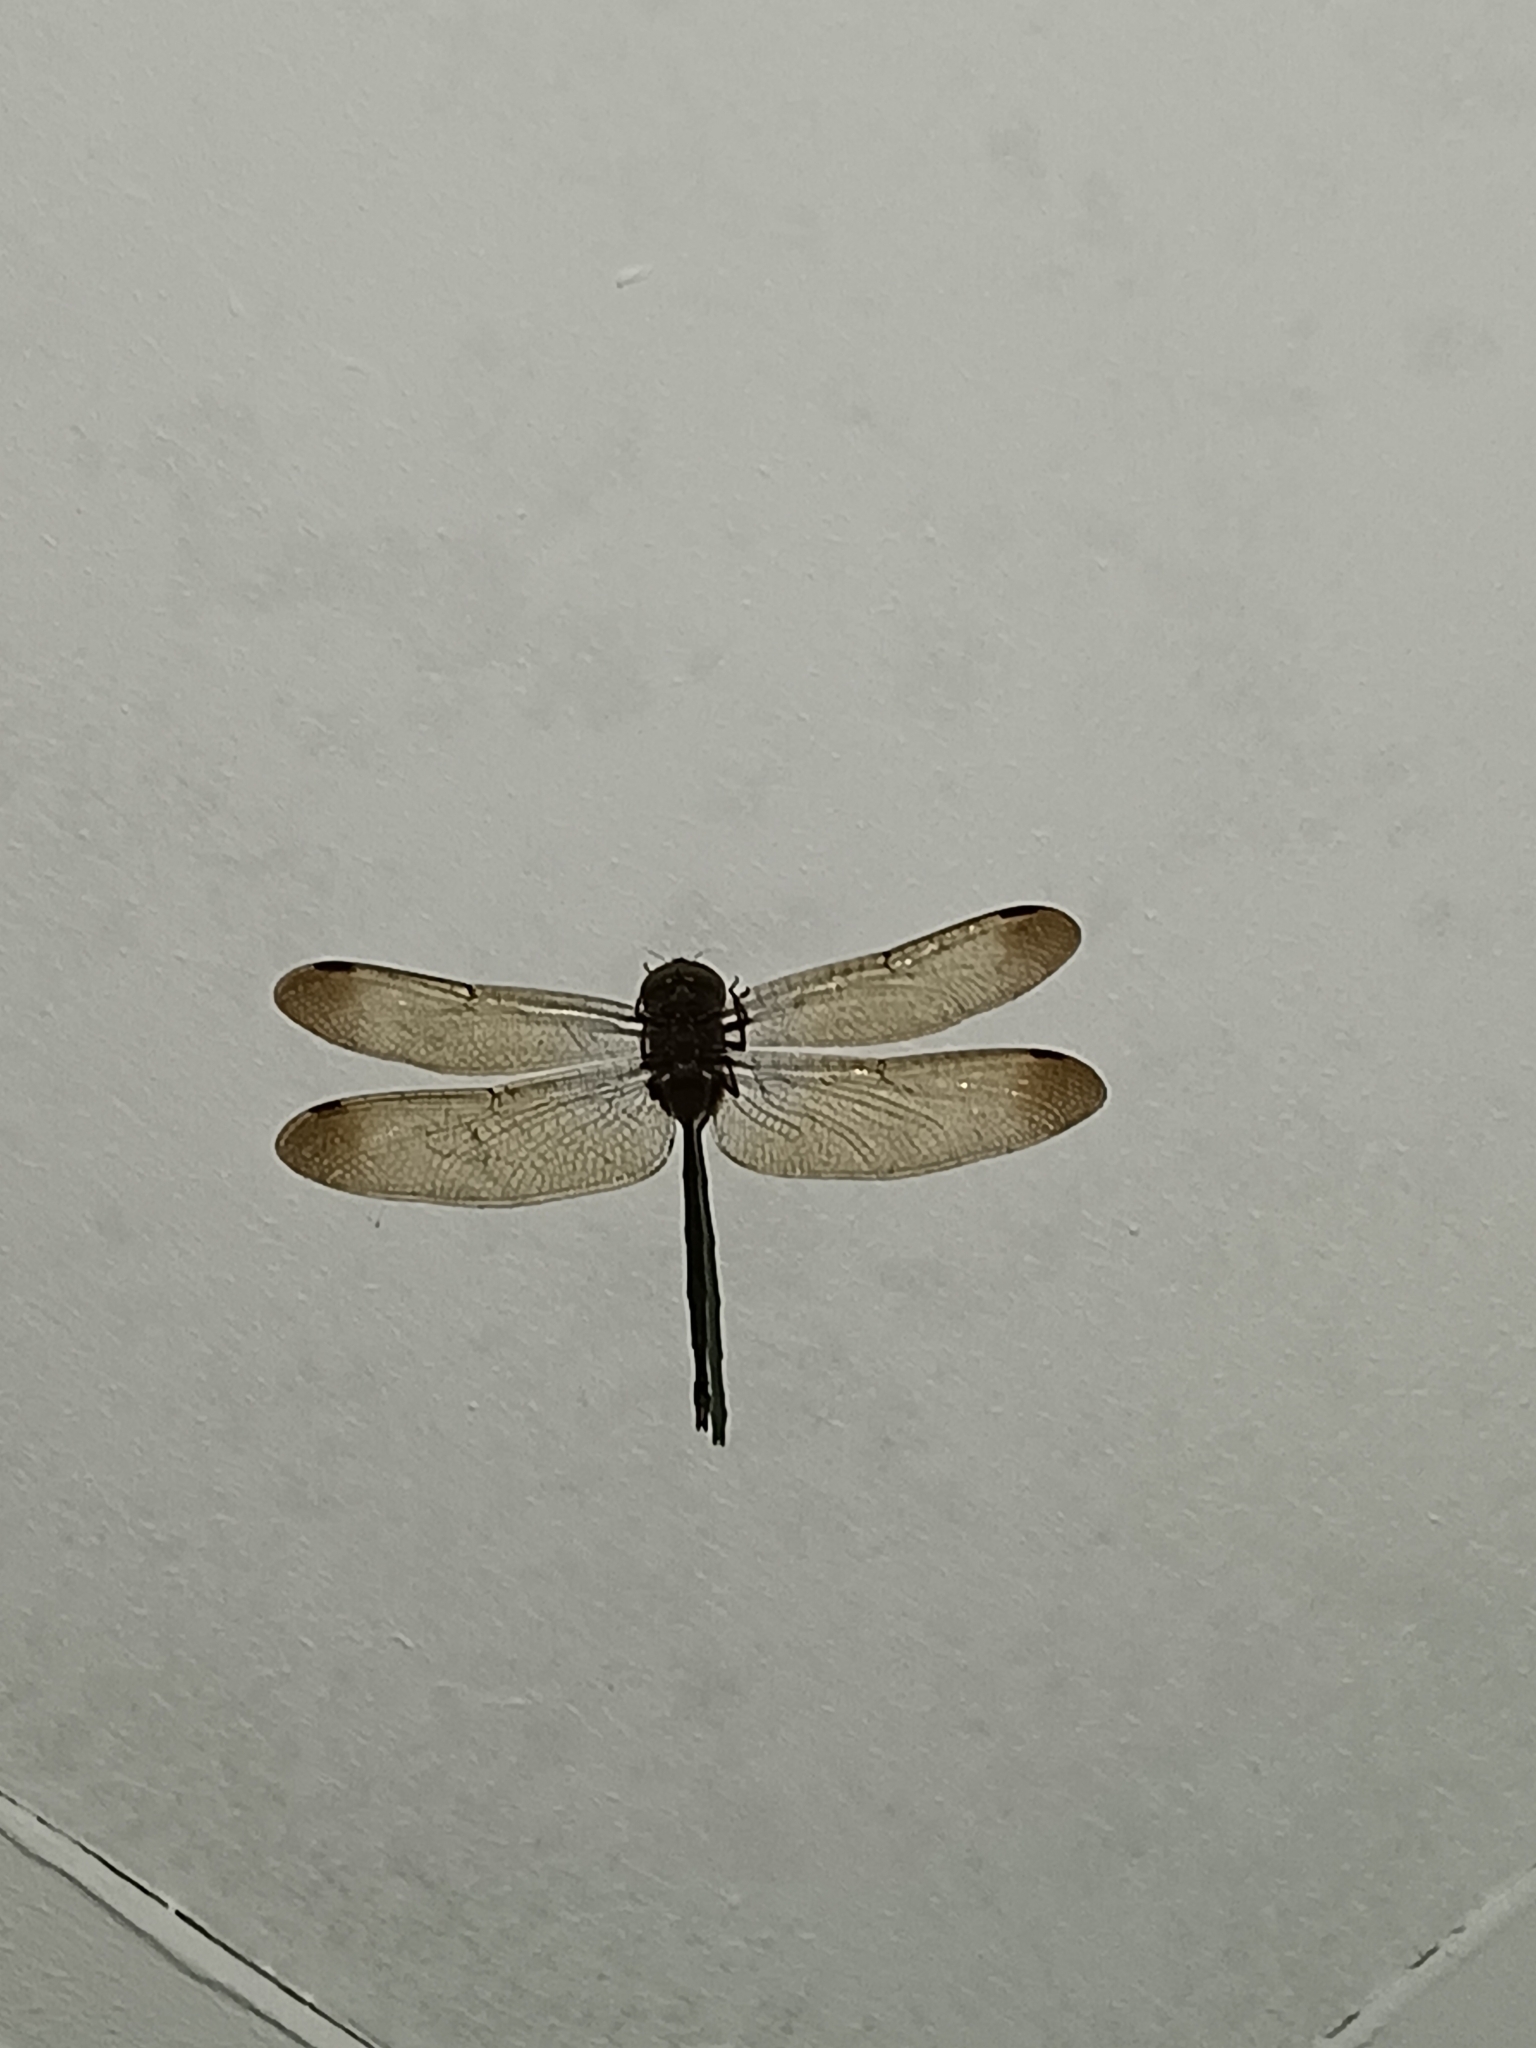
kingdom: Animalia
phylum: Arthropoda
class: Insecta
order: Odonata
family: Libellulidae
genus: Zyxomma
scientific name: Zyxomma petiolatum
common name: Dingy dusk-darter
